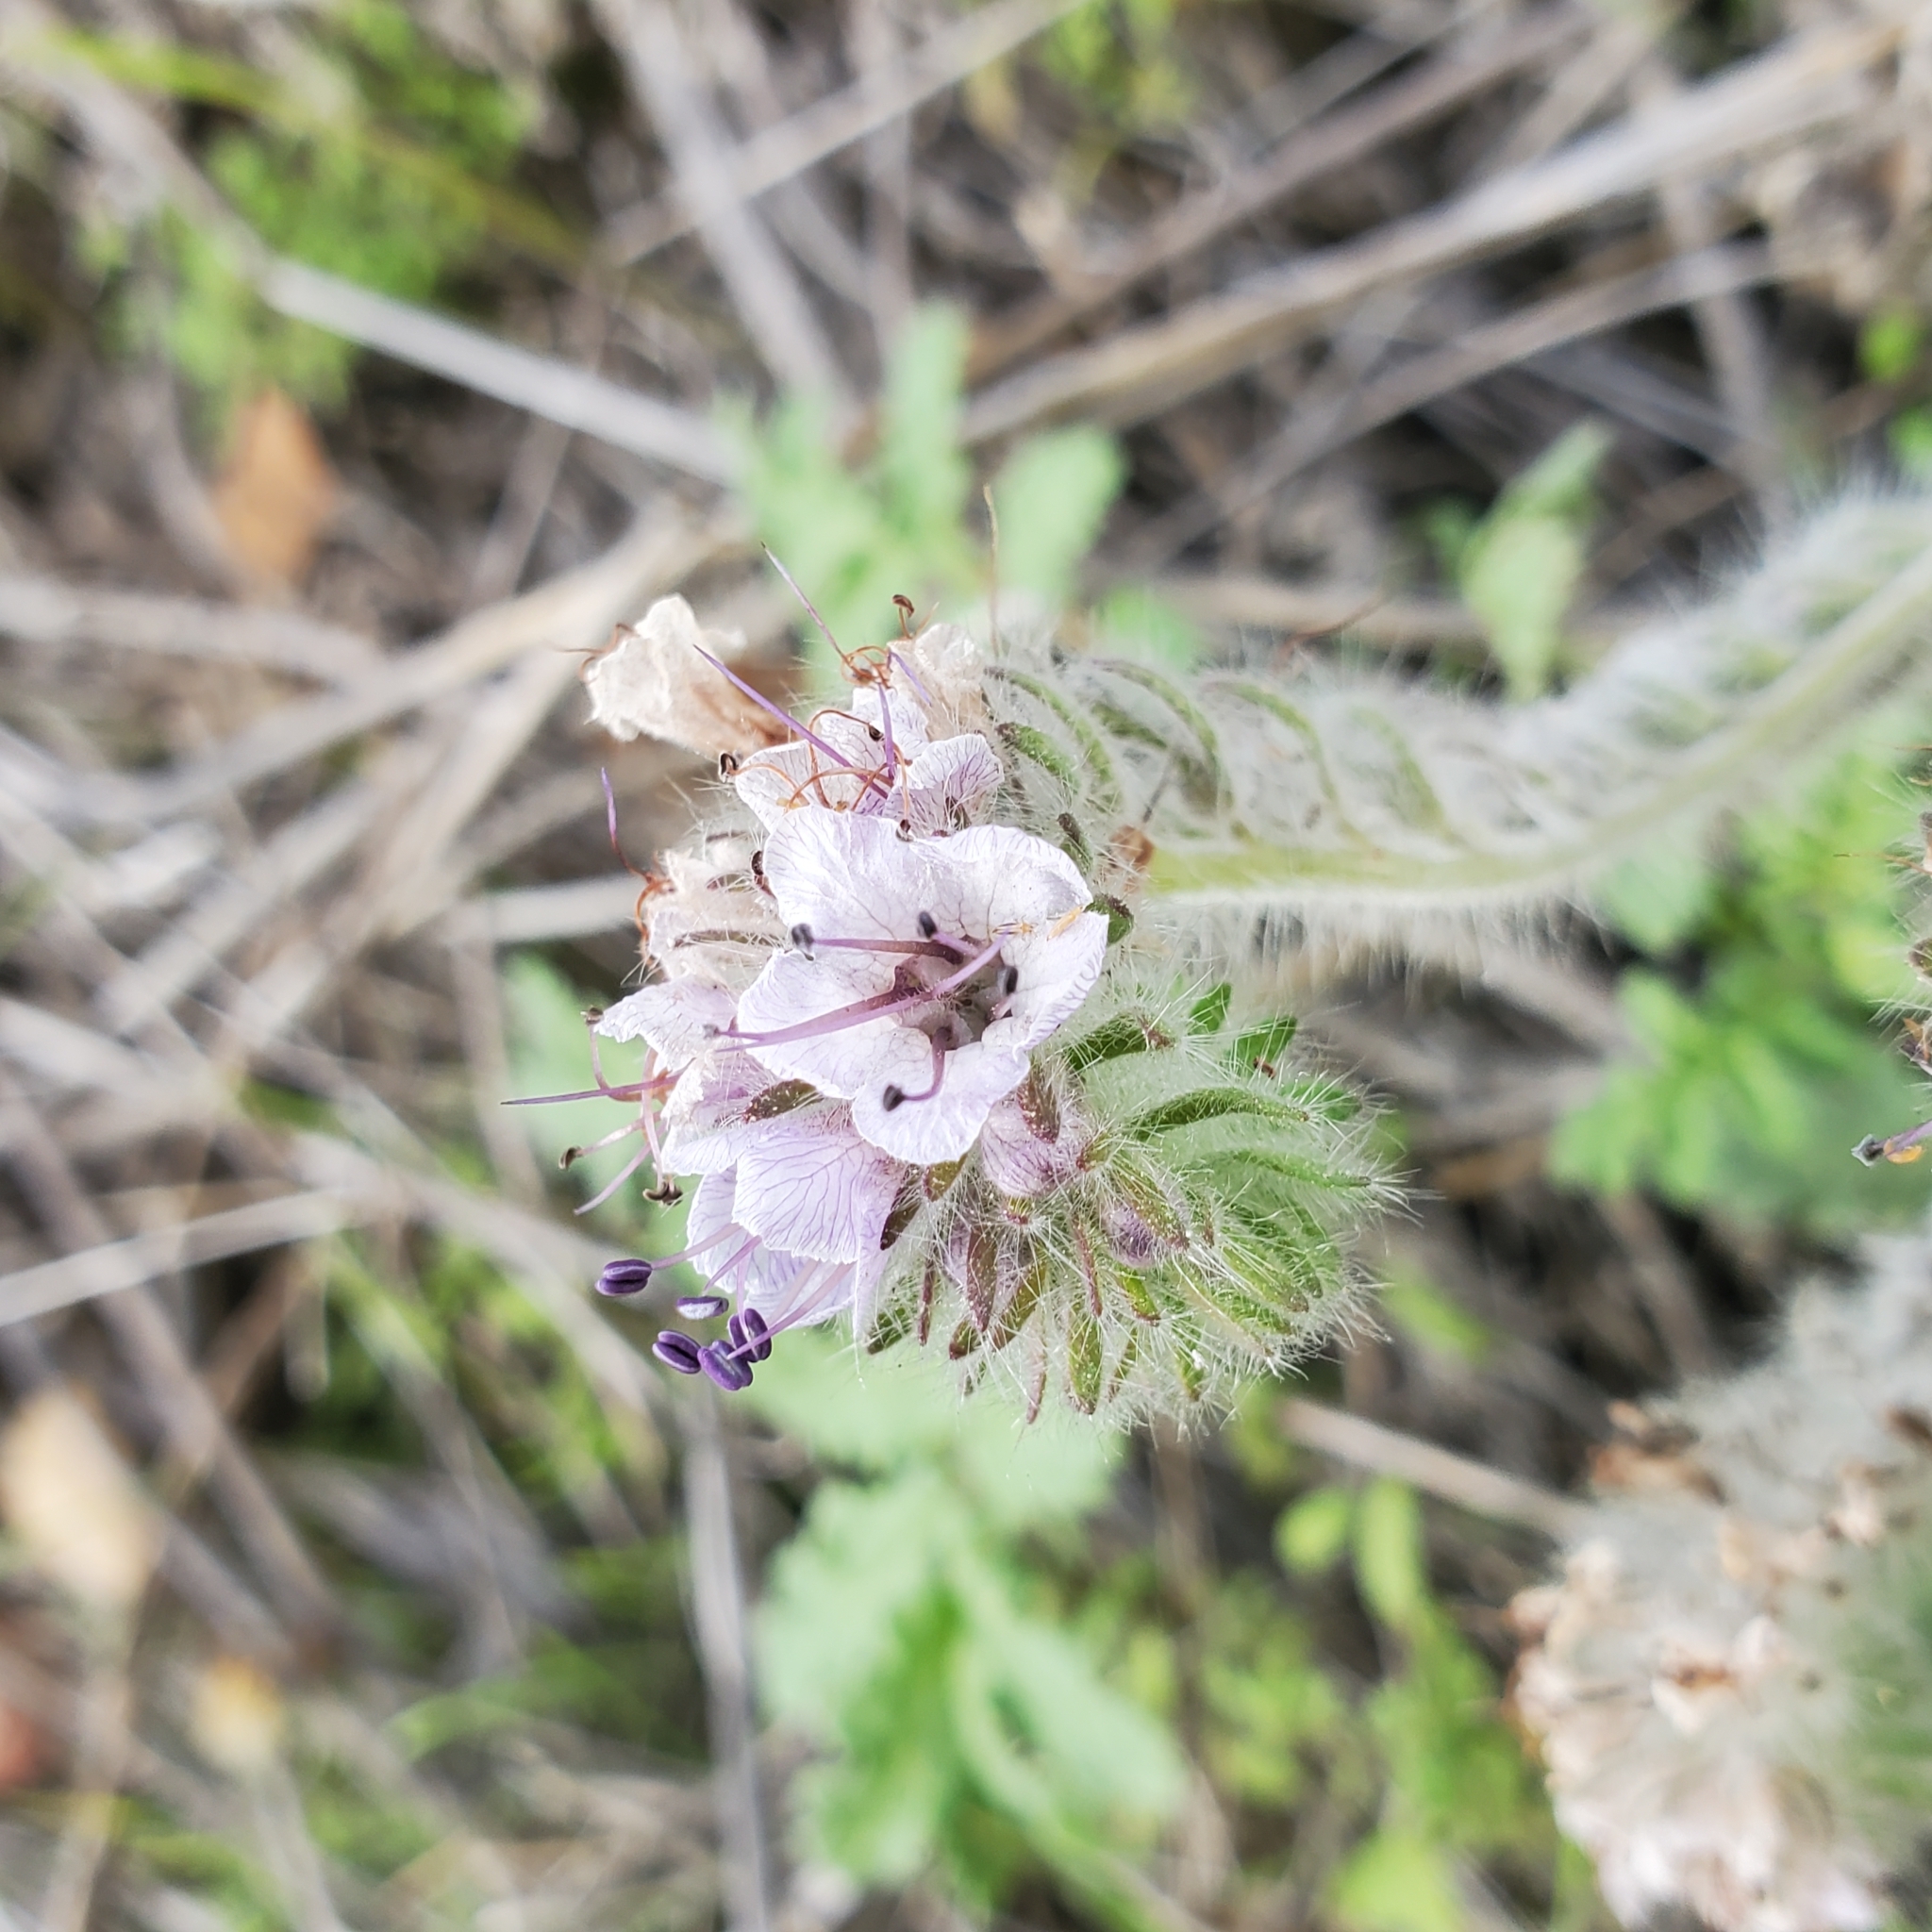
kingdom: Plantae
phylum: Tracheophyta
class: Magnoliopsida
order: Boraginales
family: Hydrophyllaceae
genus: Phacelia
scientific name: Phacelia hubbyi
